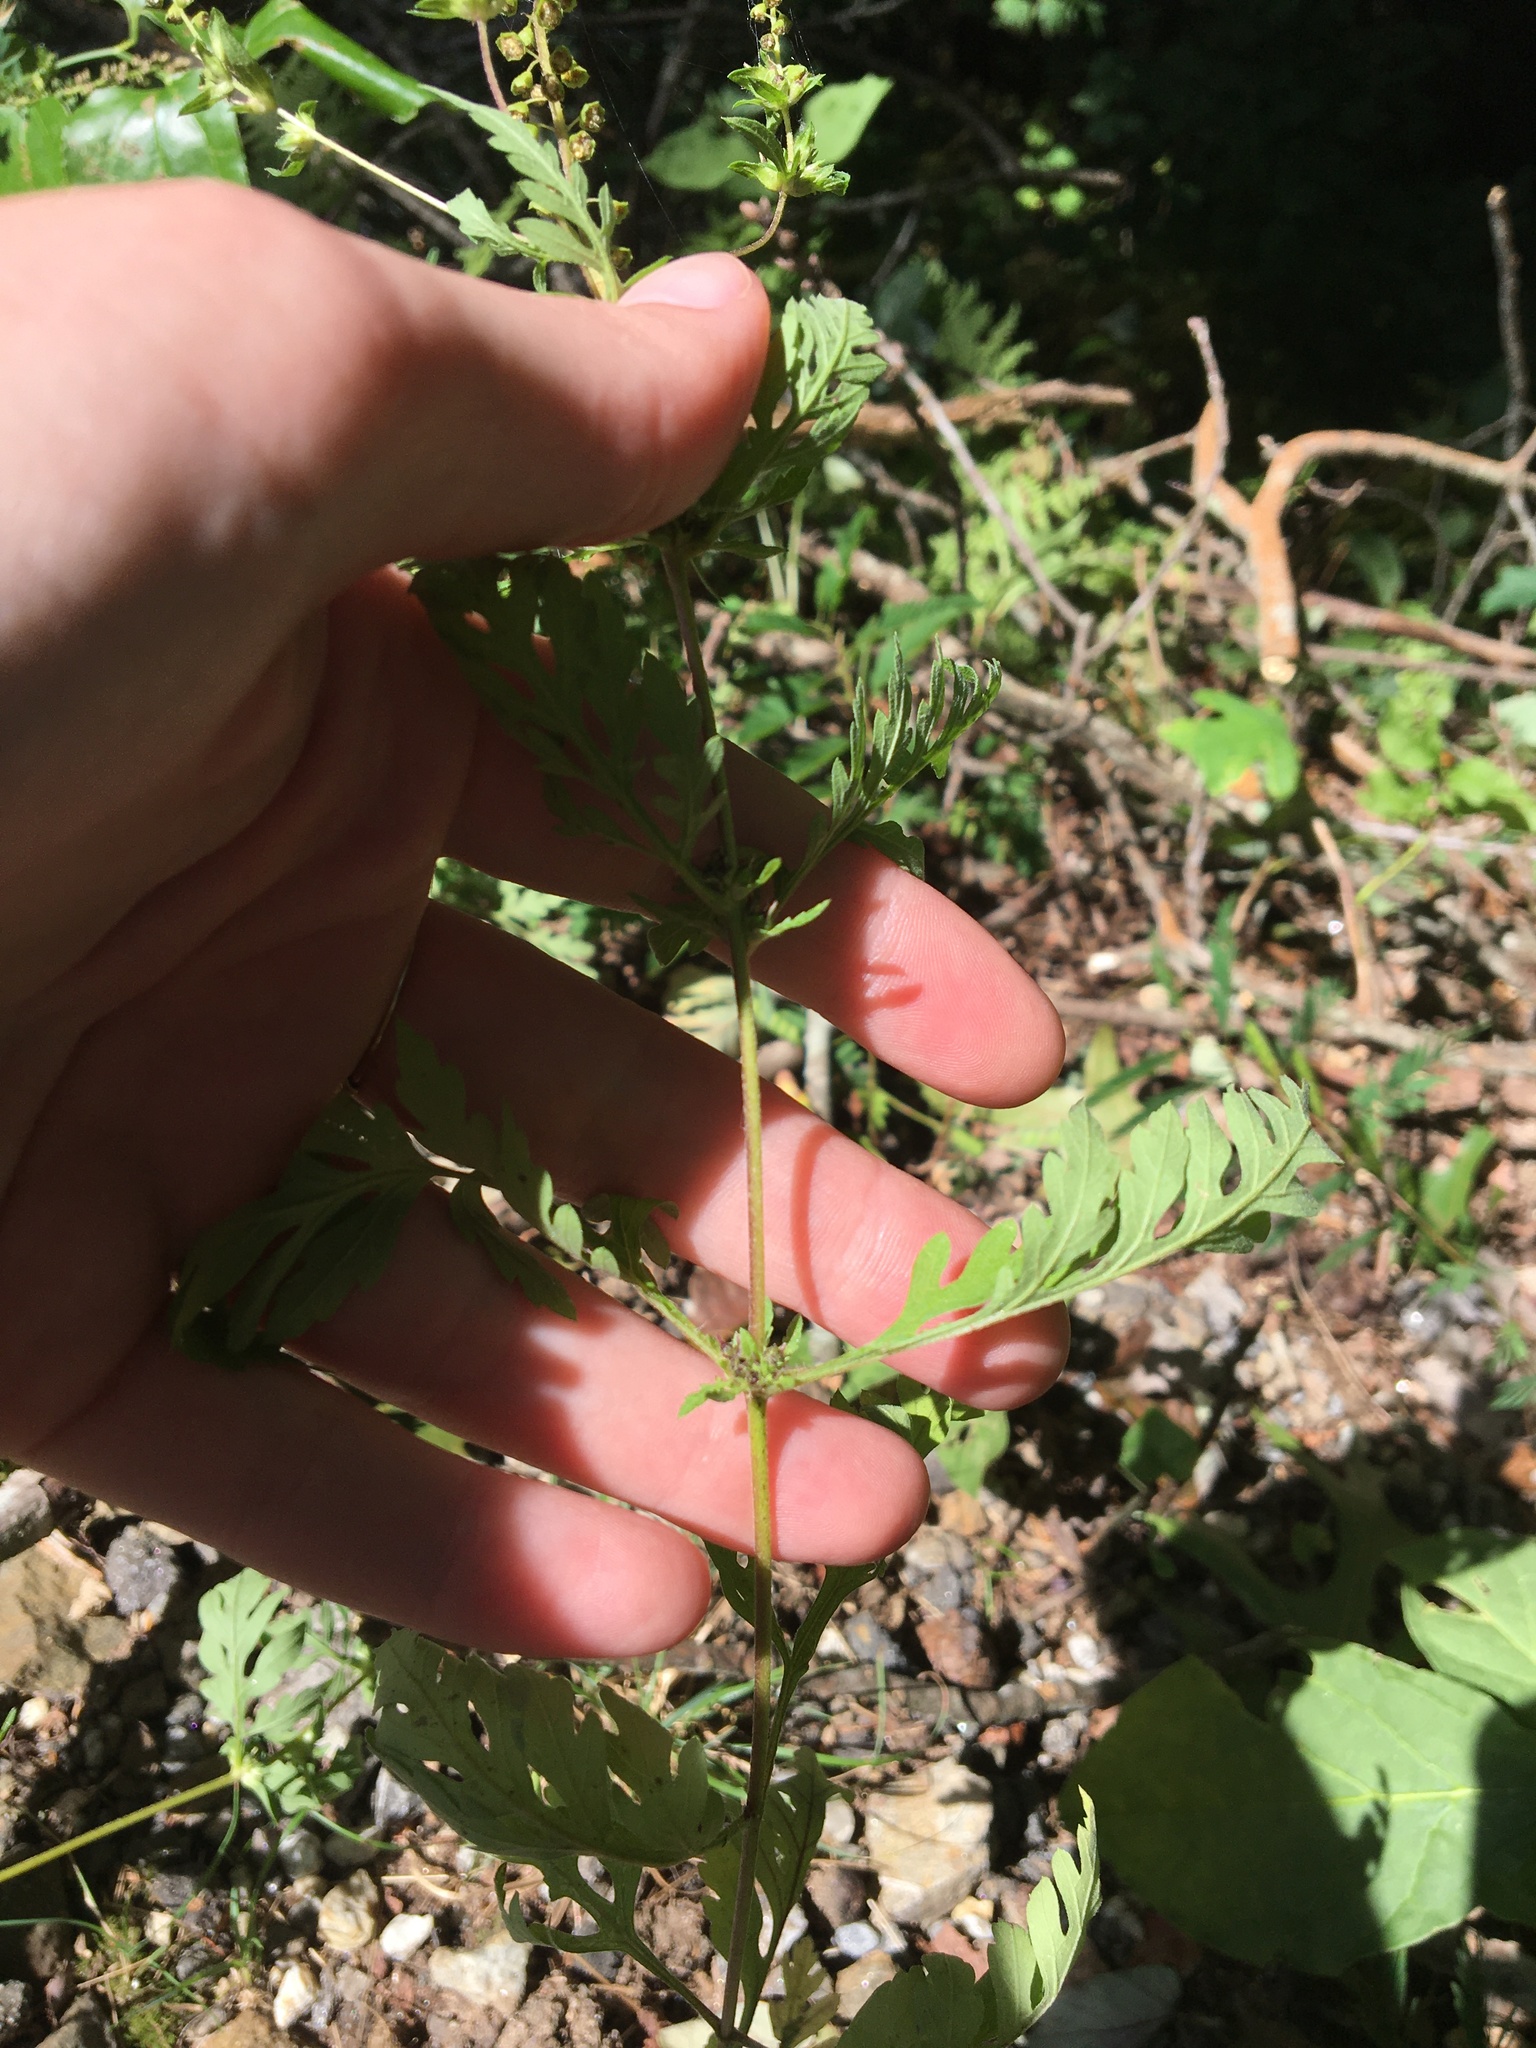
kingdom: Plantae
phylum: Tracheophyta
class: Magnoliopsida
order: Asterales
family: Asteraceae
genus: Ambrosia
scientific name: Ambrosia artemisiifolia
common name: Annual ragweed
